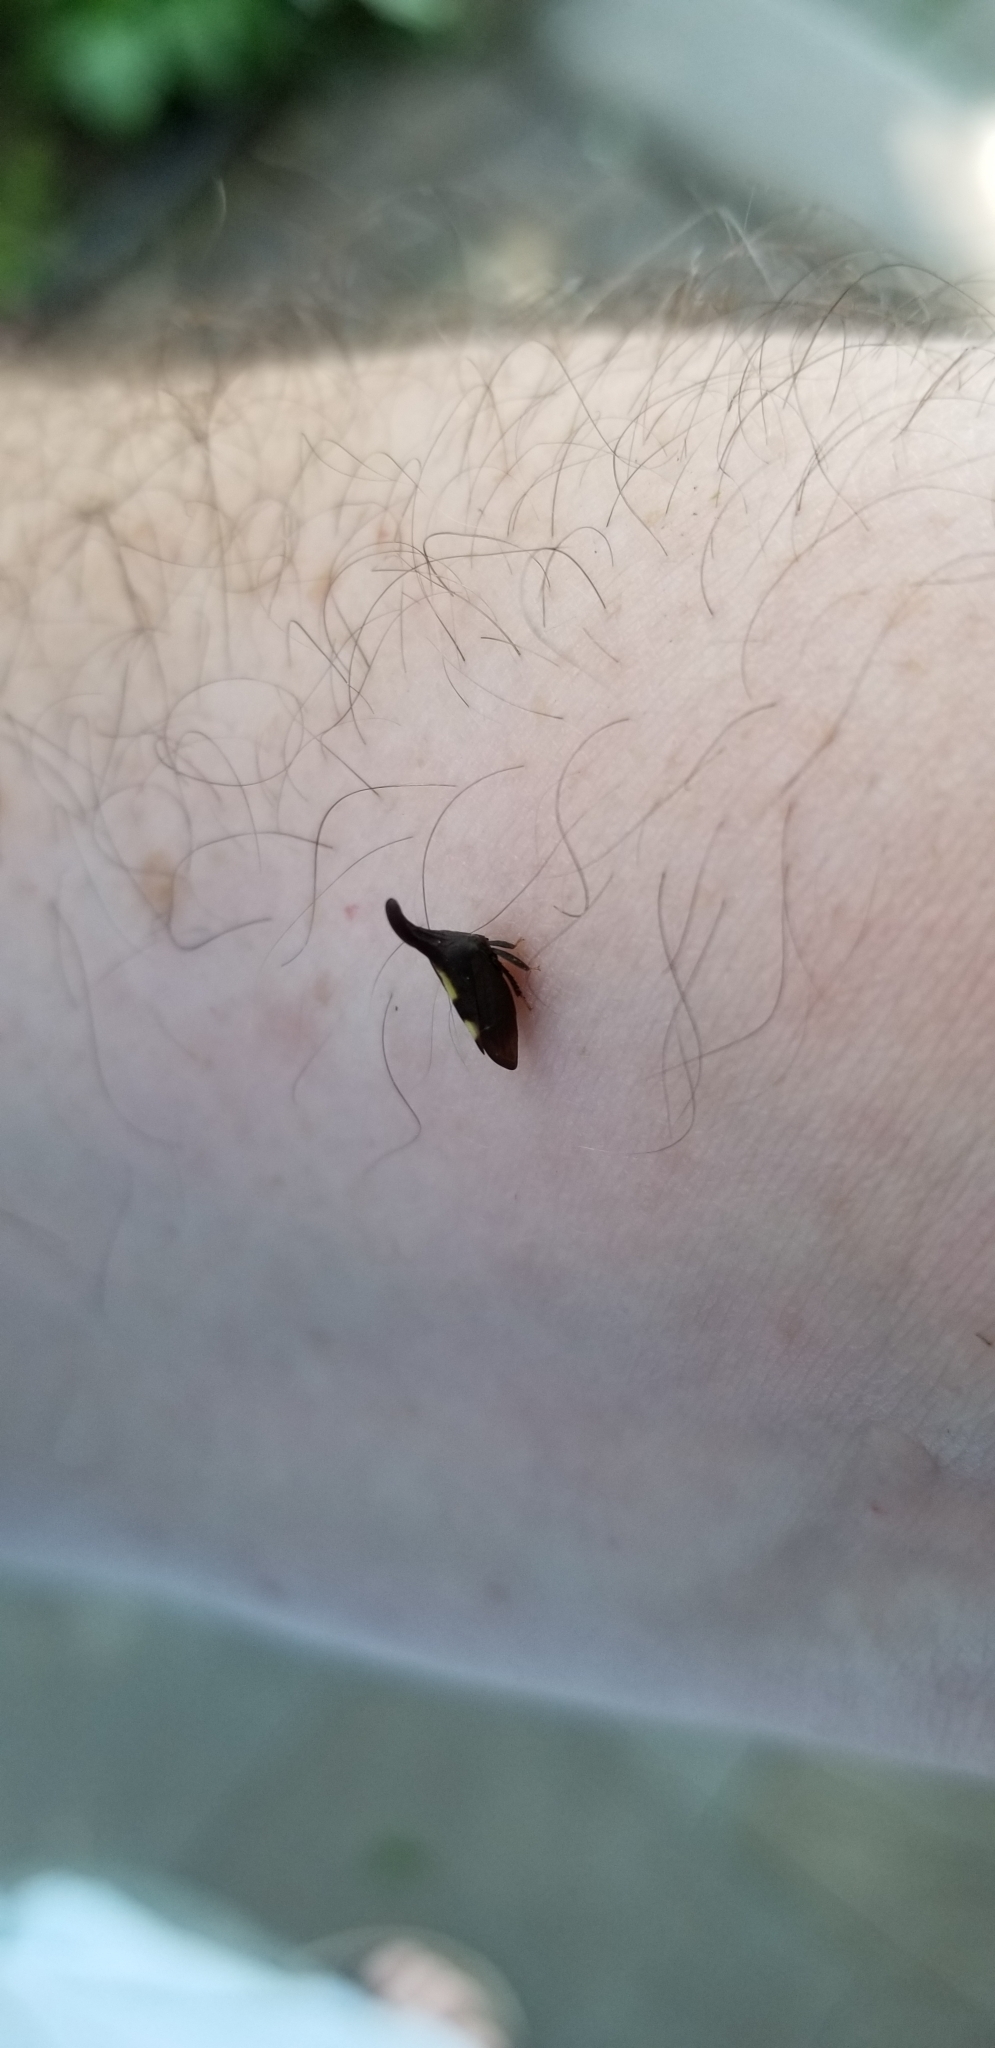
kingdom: Animalia
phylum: Arthropoda
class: Insecta
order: Hemiptera
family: Membracidae
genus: Enchenopa
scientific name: Enchenopa
